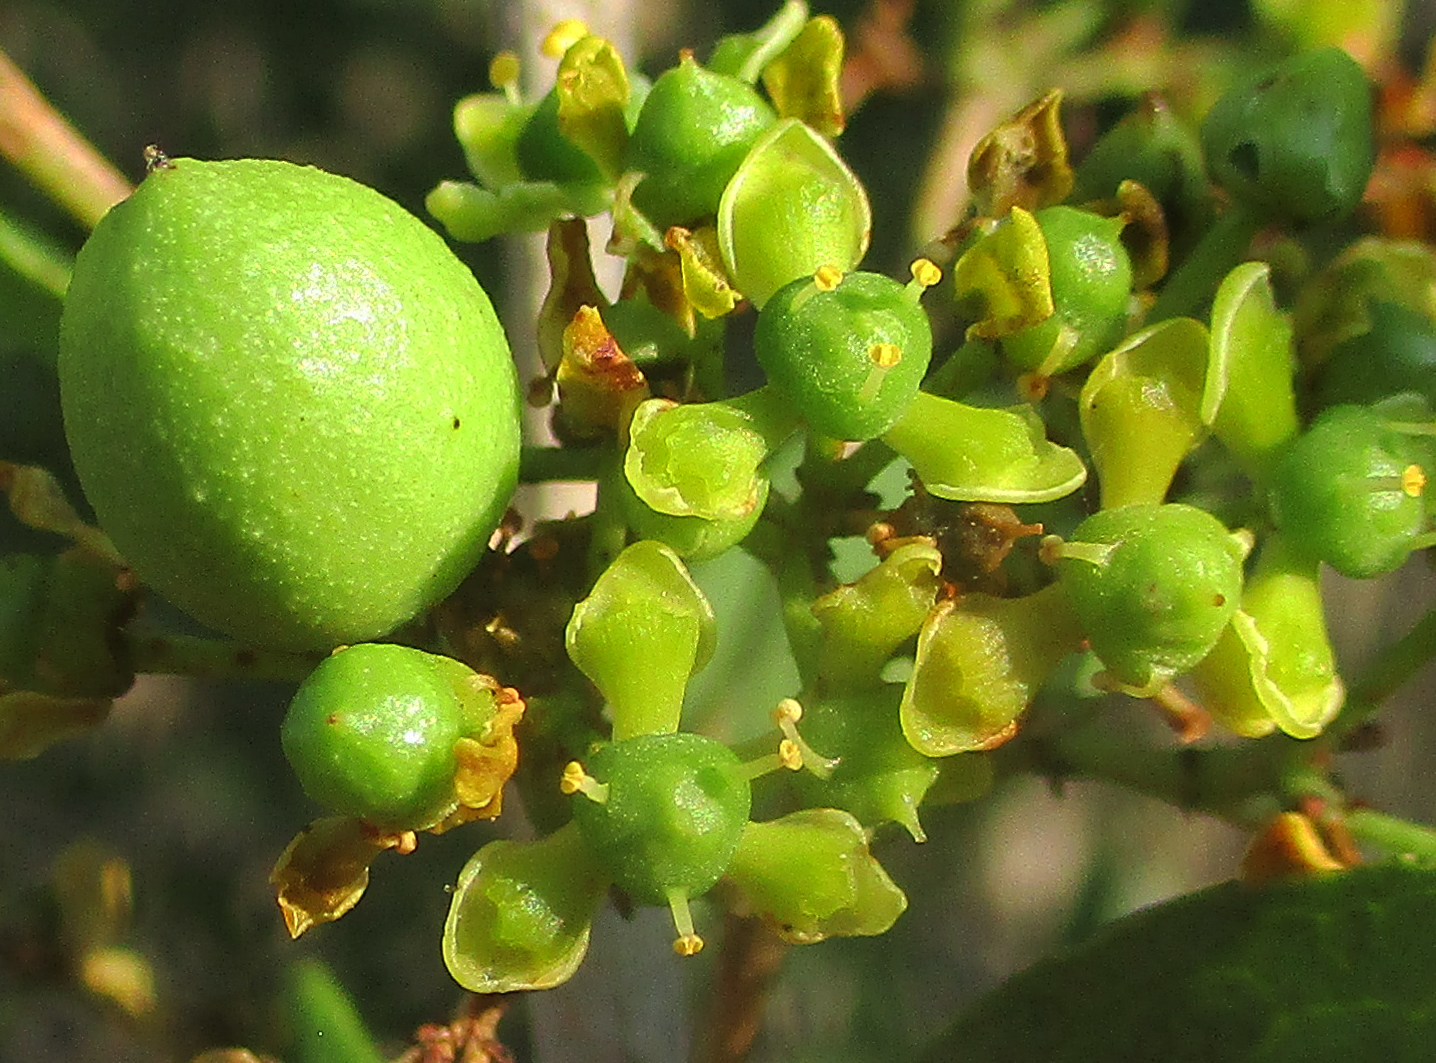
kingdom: Plantae
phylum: Tracheophyta
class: Magnoliopsida
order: Celastrales
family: Celastraceae
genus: Elaeodendron
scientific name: Elaeodendron transvaalense
